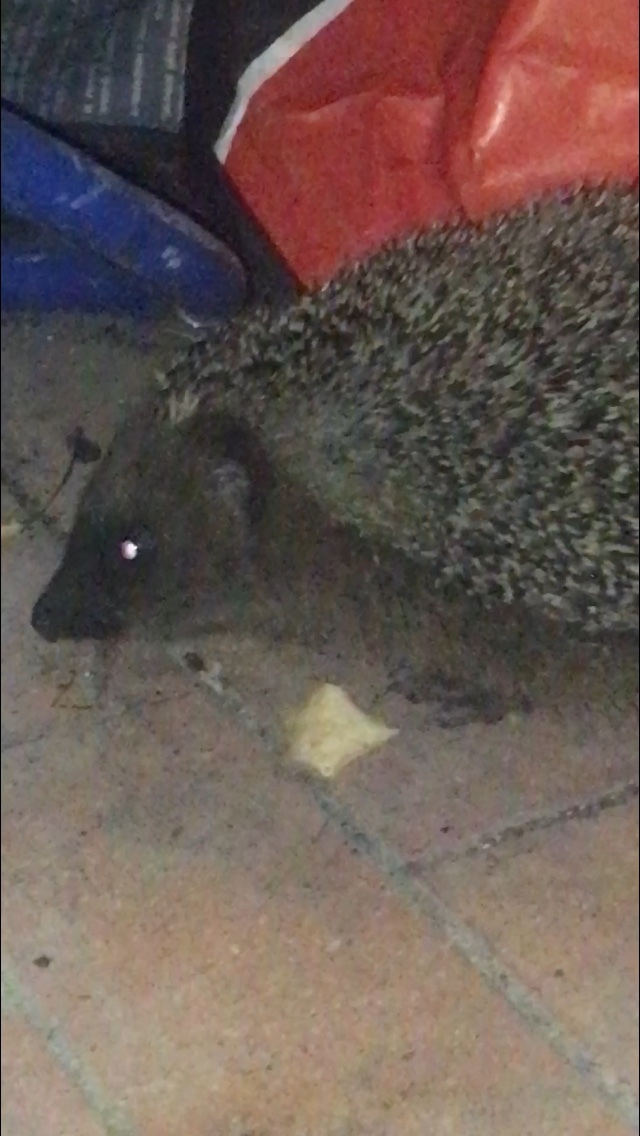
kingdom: Animalia
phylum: Chordata
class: Mammalia
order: Erinaceomorpha
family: Erinaceidae
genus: Erinaceus
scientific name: Erinaceus europaeus
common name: West european hedgehog
